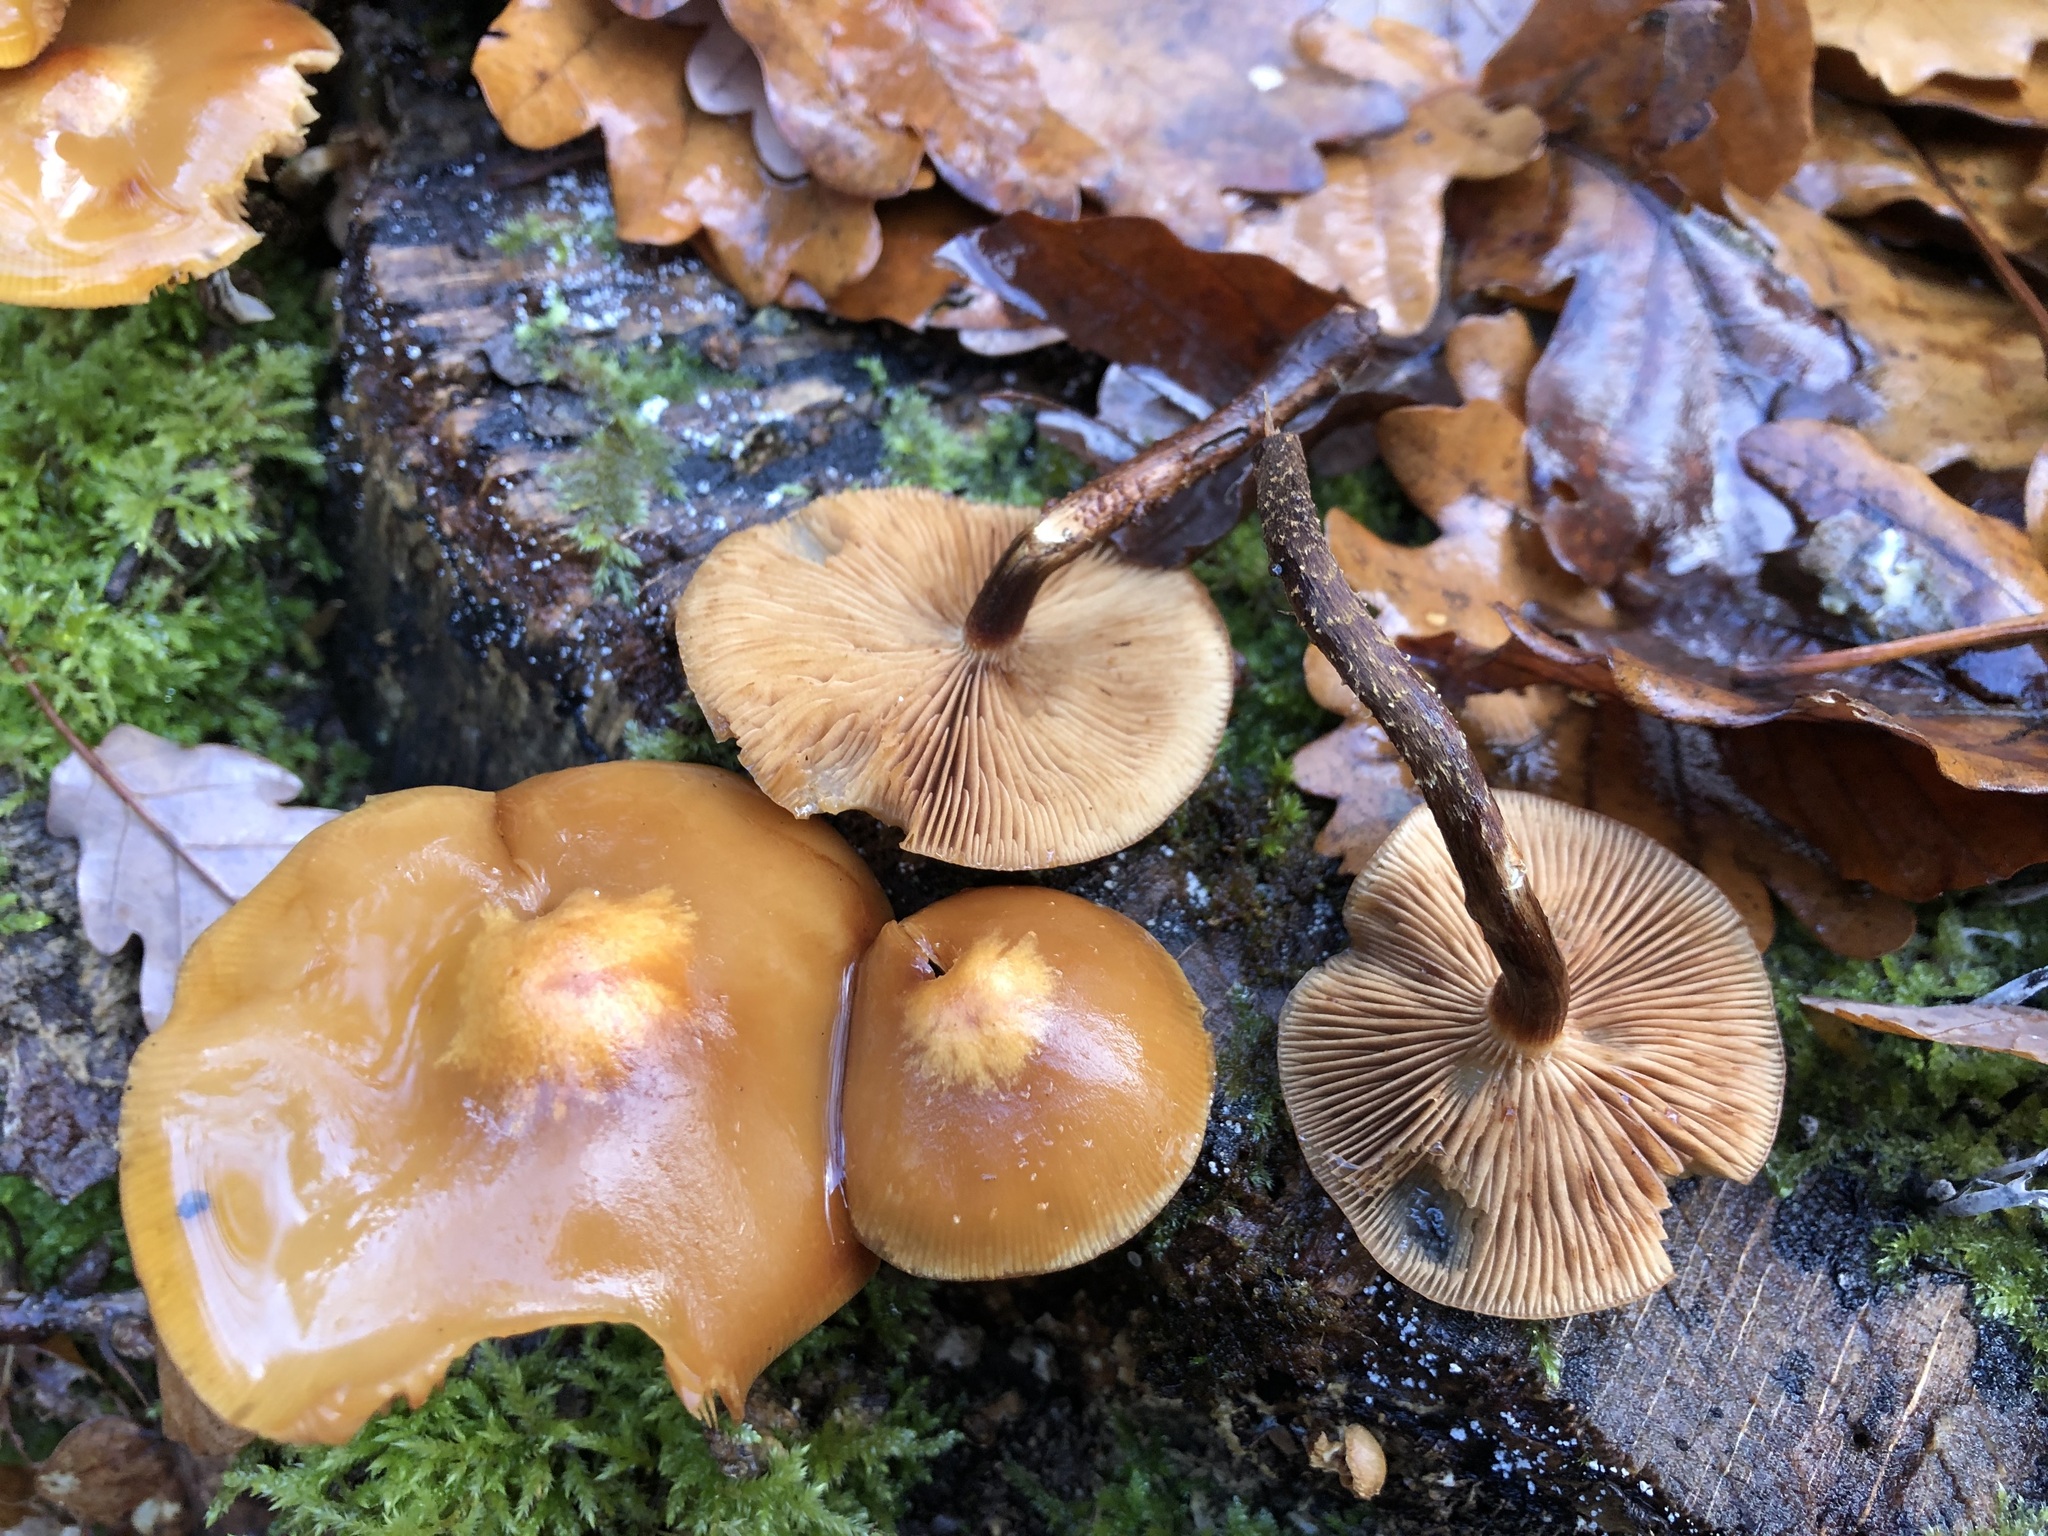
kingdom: Fungi
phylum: Basidiomycota
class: Agaricomycetes
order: Agaricales
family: Strophariaceae
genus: Kuehneromyces
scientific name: Kuehneromyces mutabilis
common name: Sheathed woodtuft
